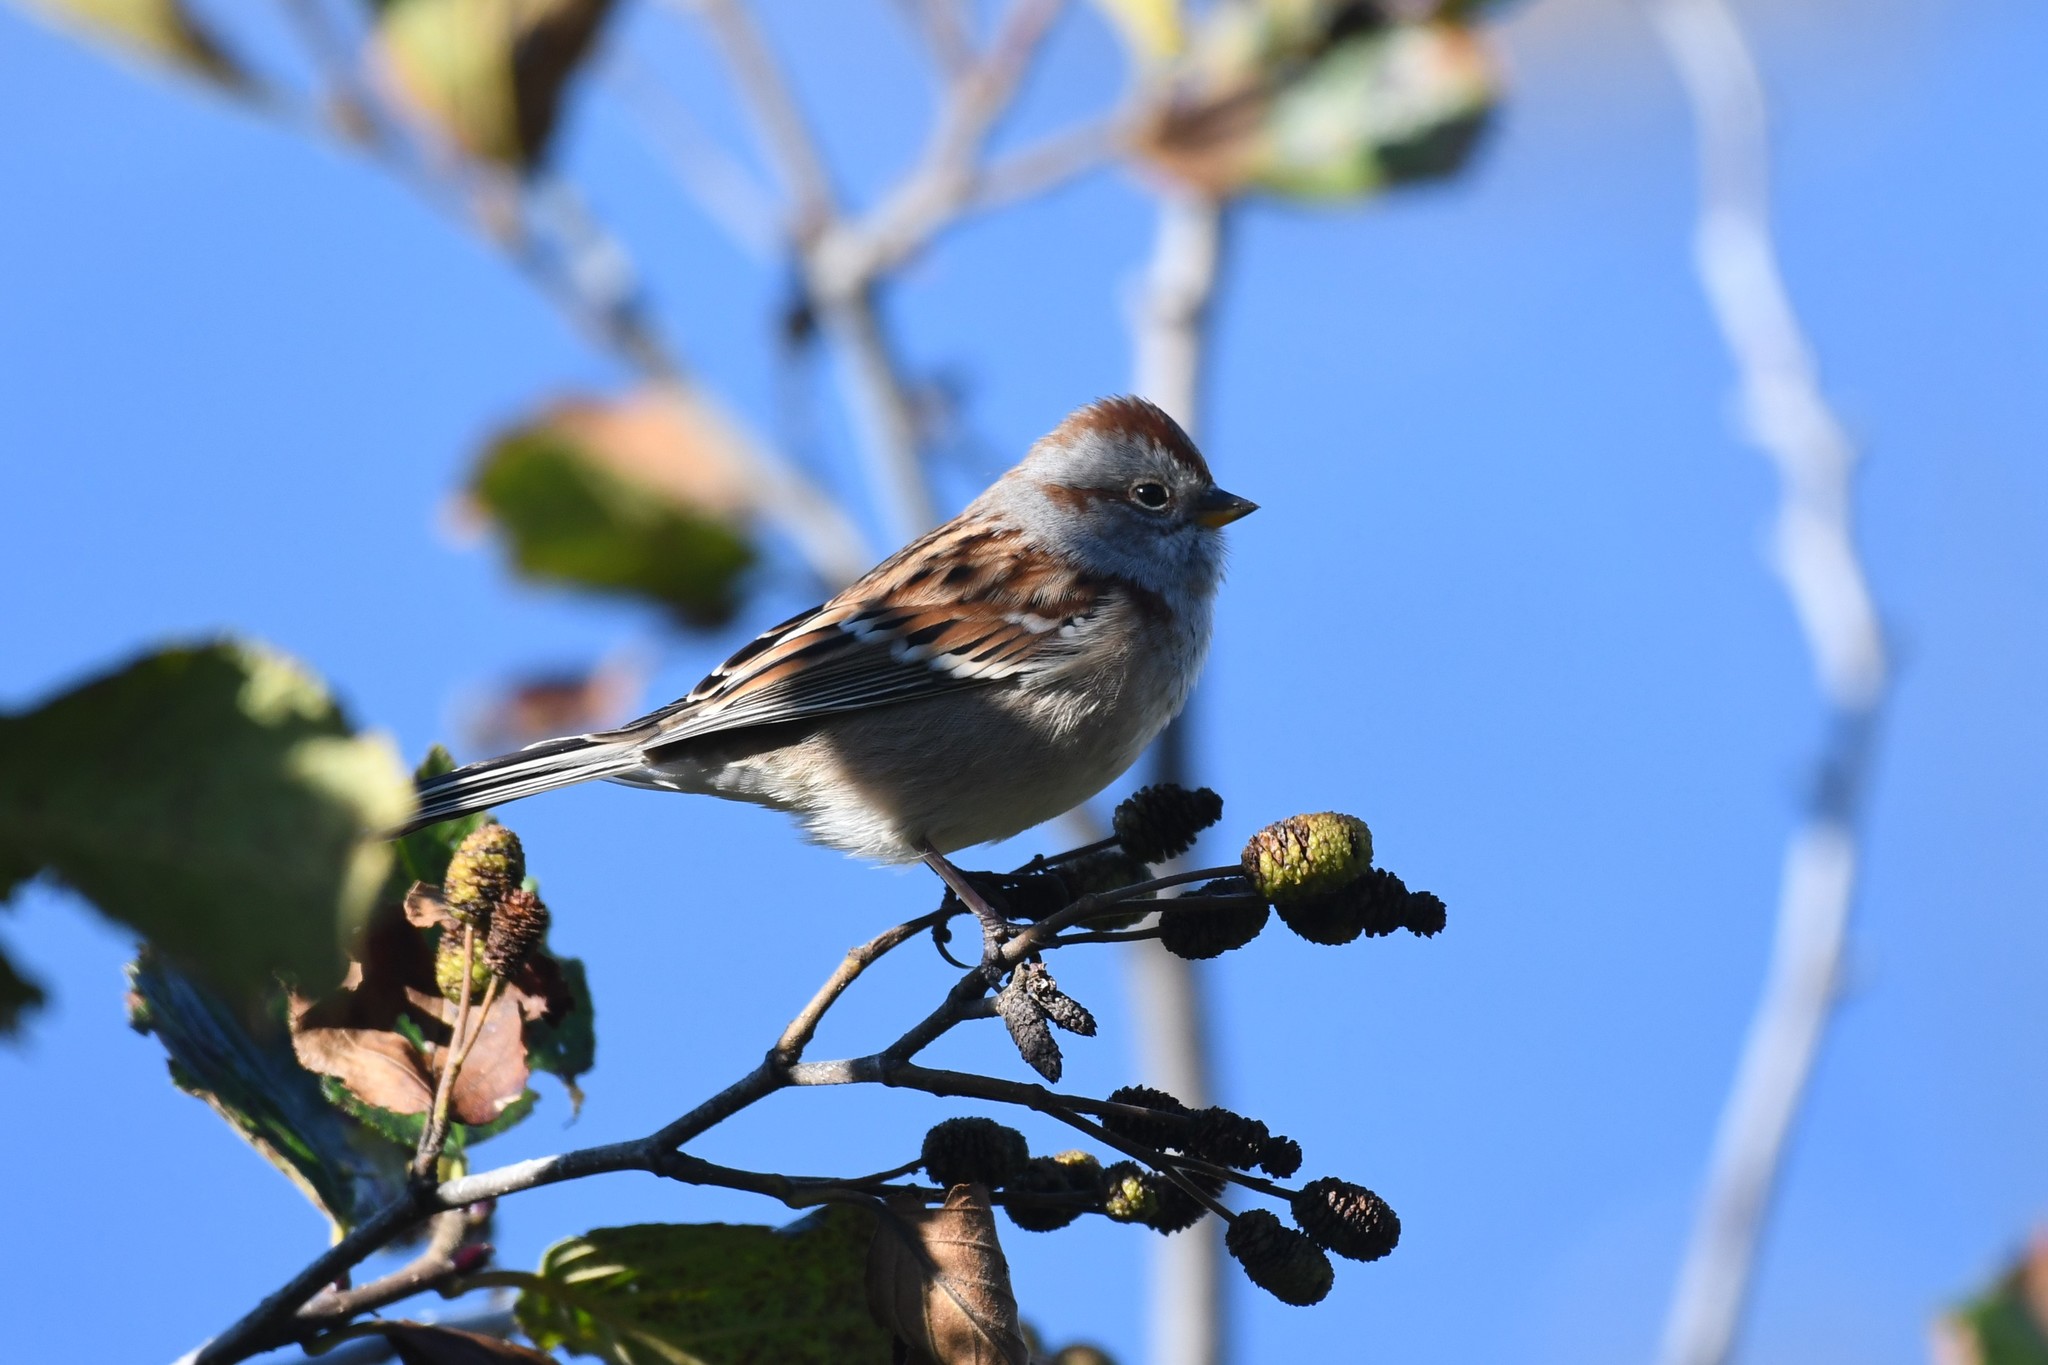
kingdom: Animalia
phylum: Chordata
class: Aves
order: Passeriformes
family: Passerellidae
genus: Spizelloides
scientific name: Spizelloides arborea
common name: American tree sparrow
